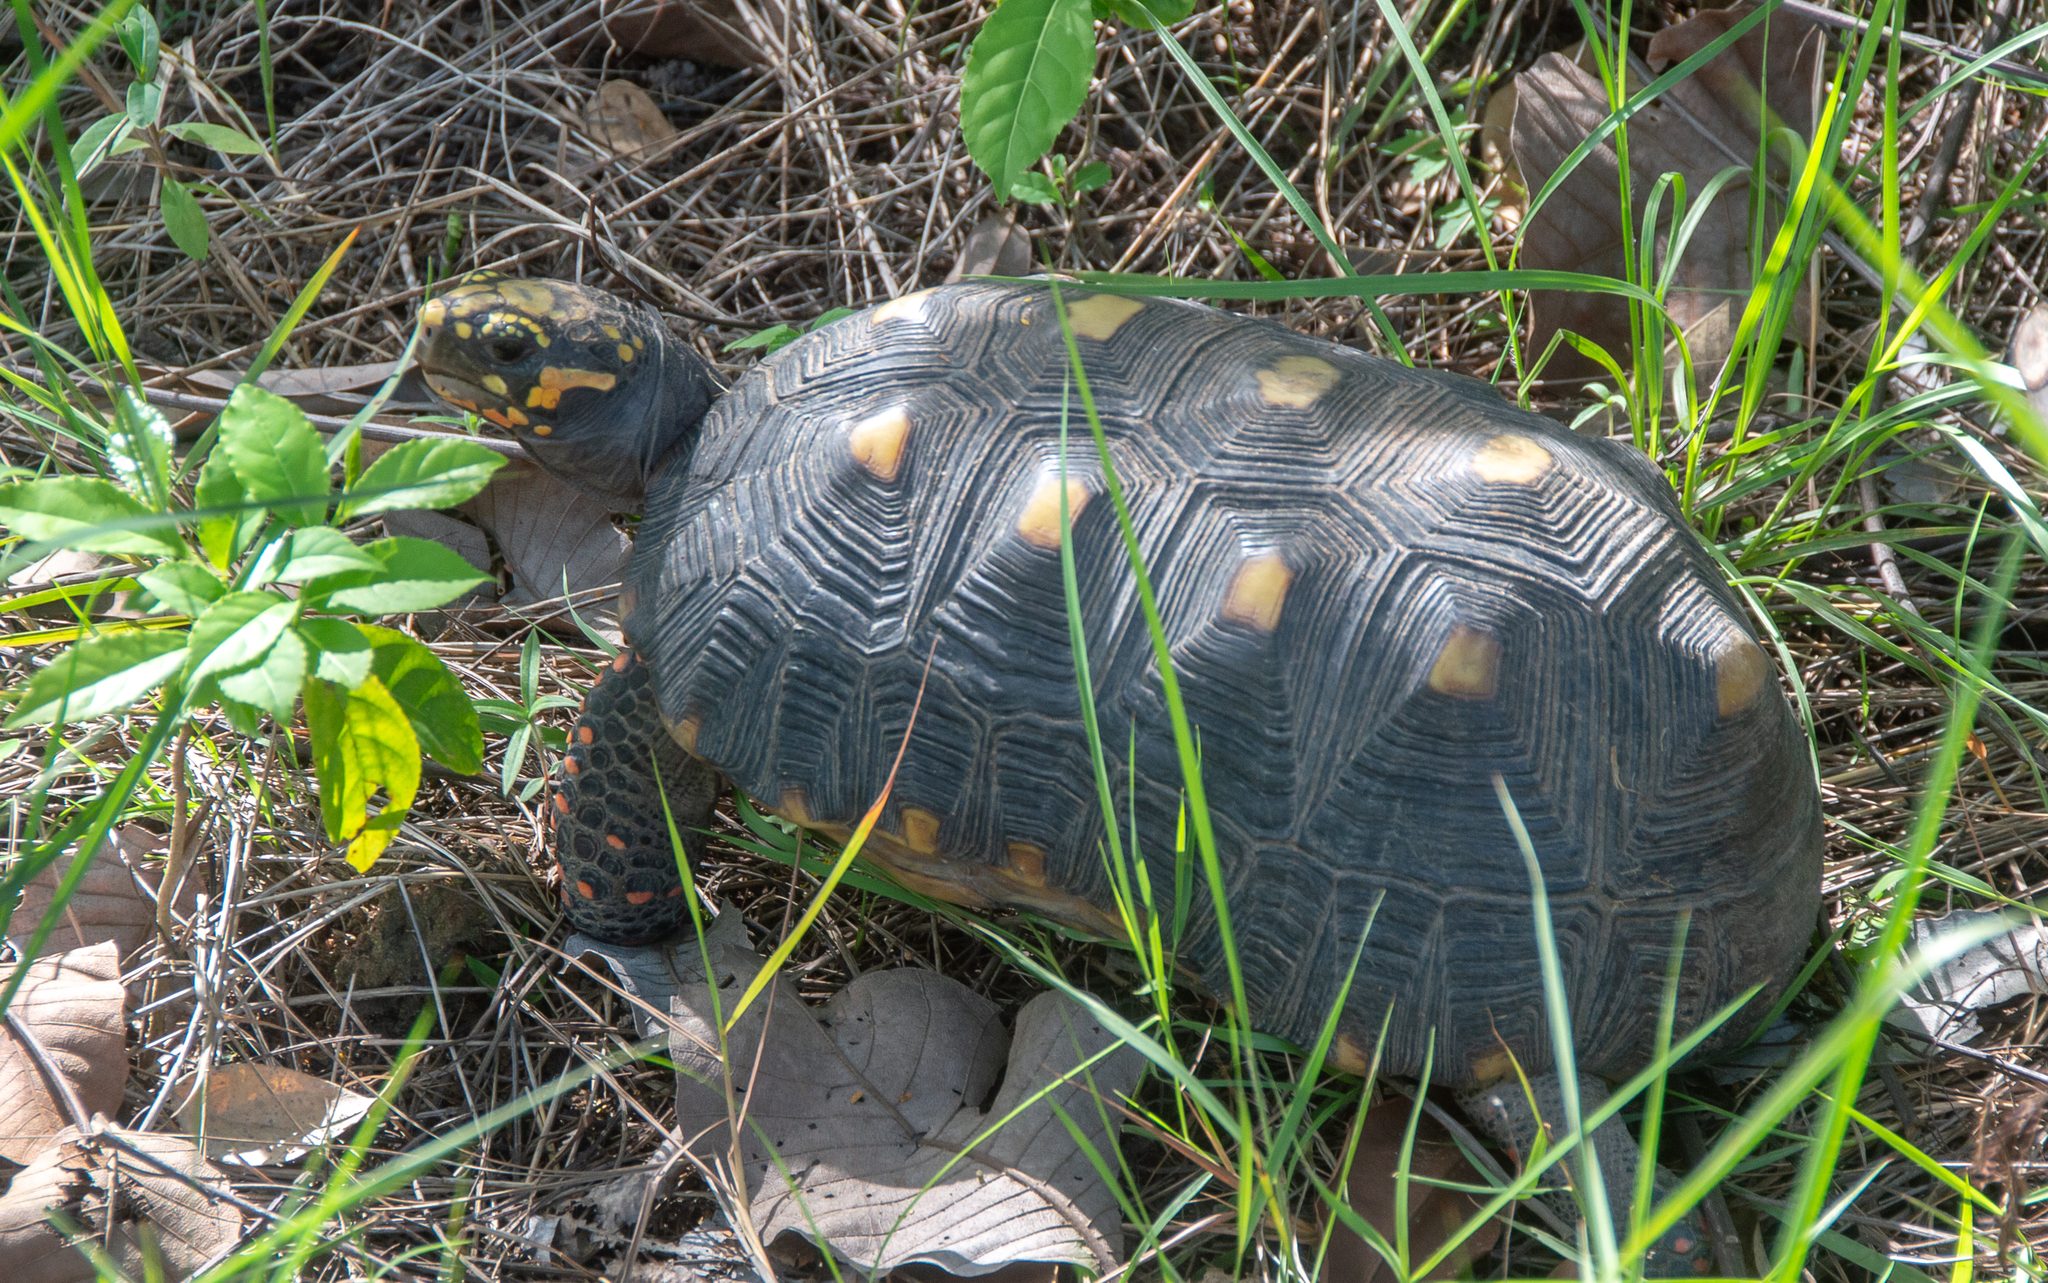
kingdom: Animalia
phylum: Chordata
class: Testudines
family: Testudinidae
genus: Chelonoidis
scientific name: Chelonoidis carbonarius
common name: Red-footed tortoise
